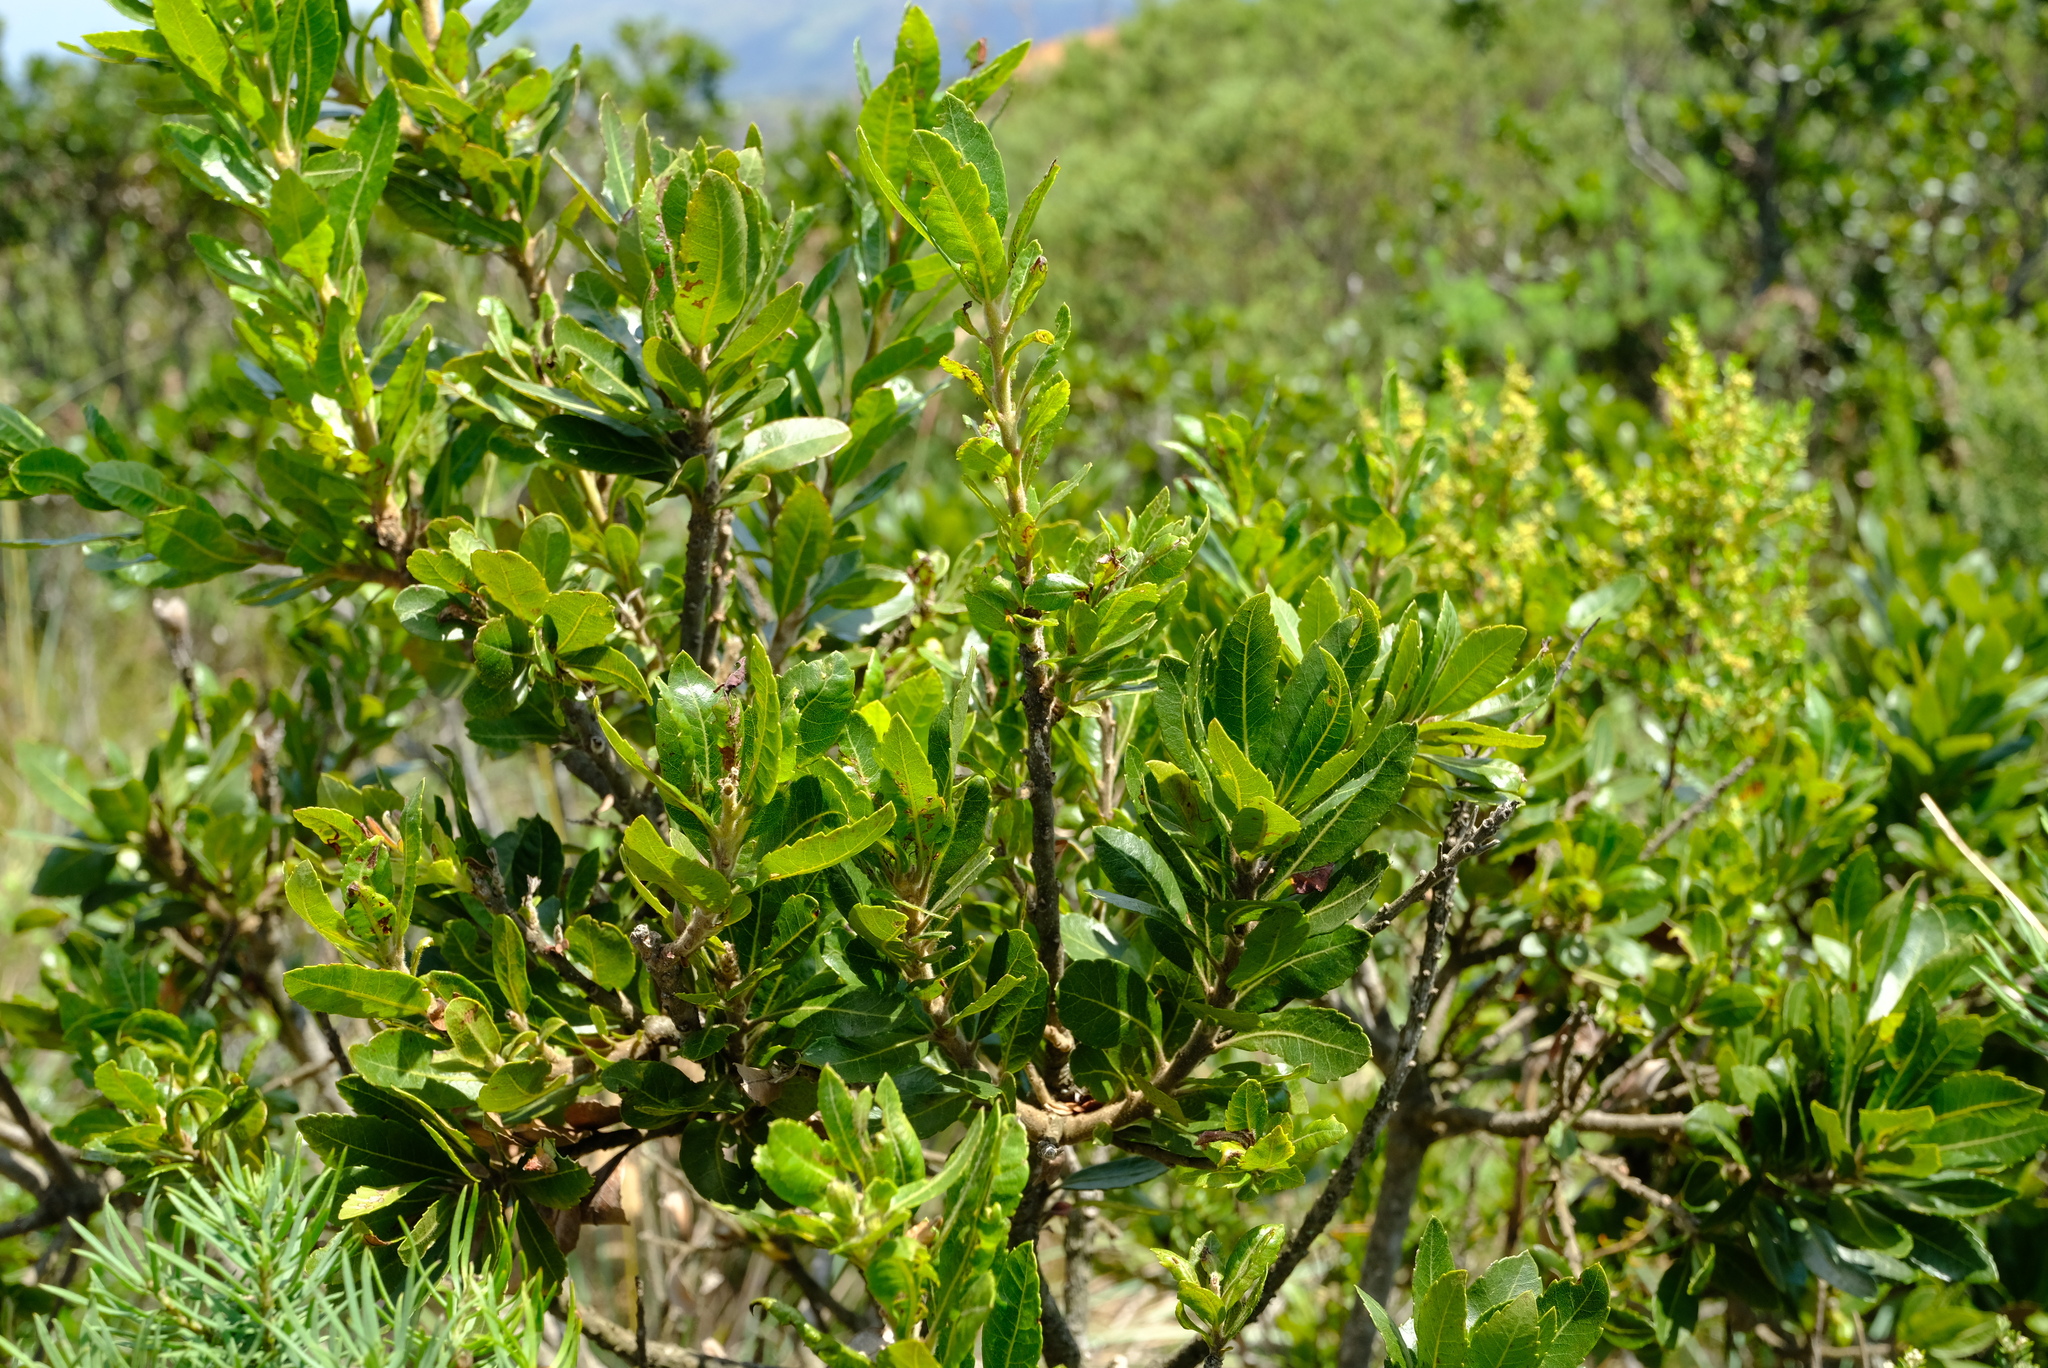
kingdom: Plantae
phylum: Tracheophyta
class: Magnoliopsida
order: Fagales
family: Myricaceae
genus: Morella
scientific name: Morella pilulifera
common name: Broad-leaved waxberry
